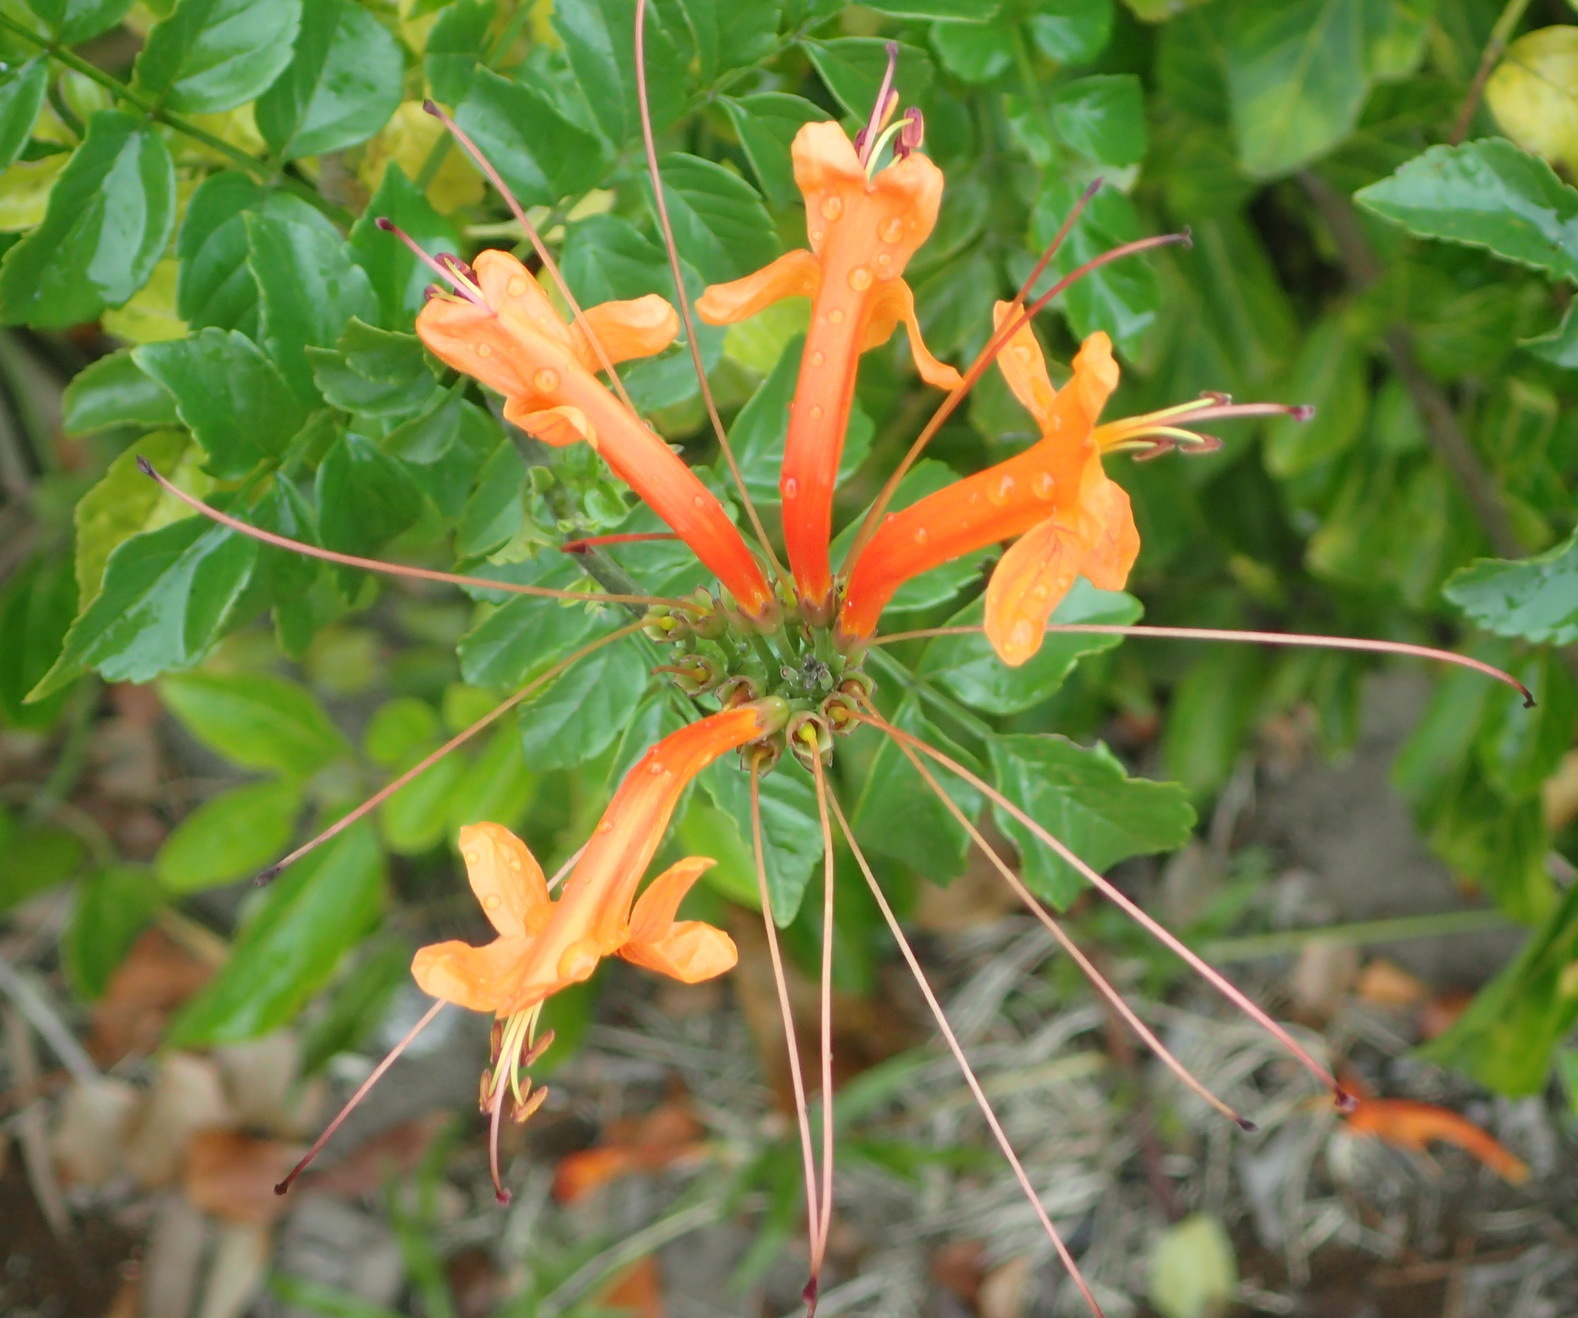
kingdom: Plantae
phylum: Tracheophyta
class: Magnoliopsida
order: Lamiales
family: Bignoniaceae
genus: Tecomaria
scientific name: Tecomaria capensis
